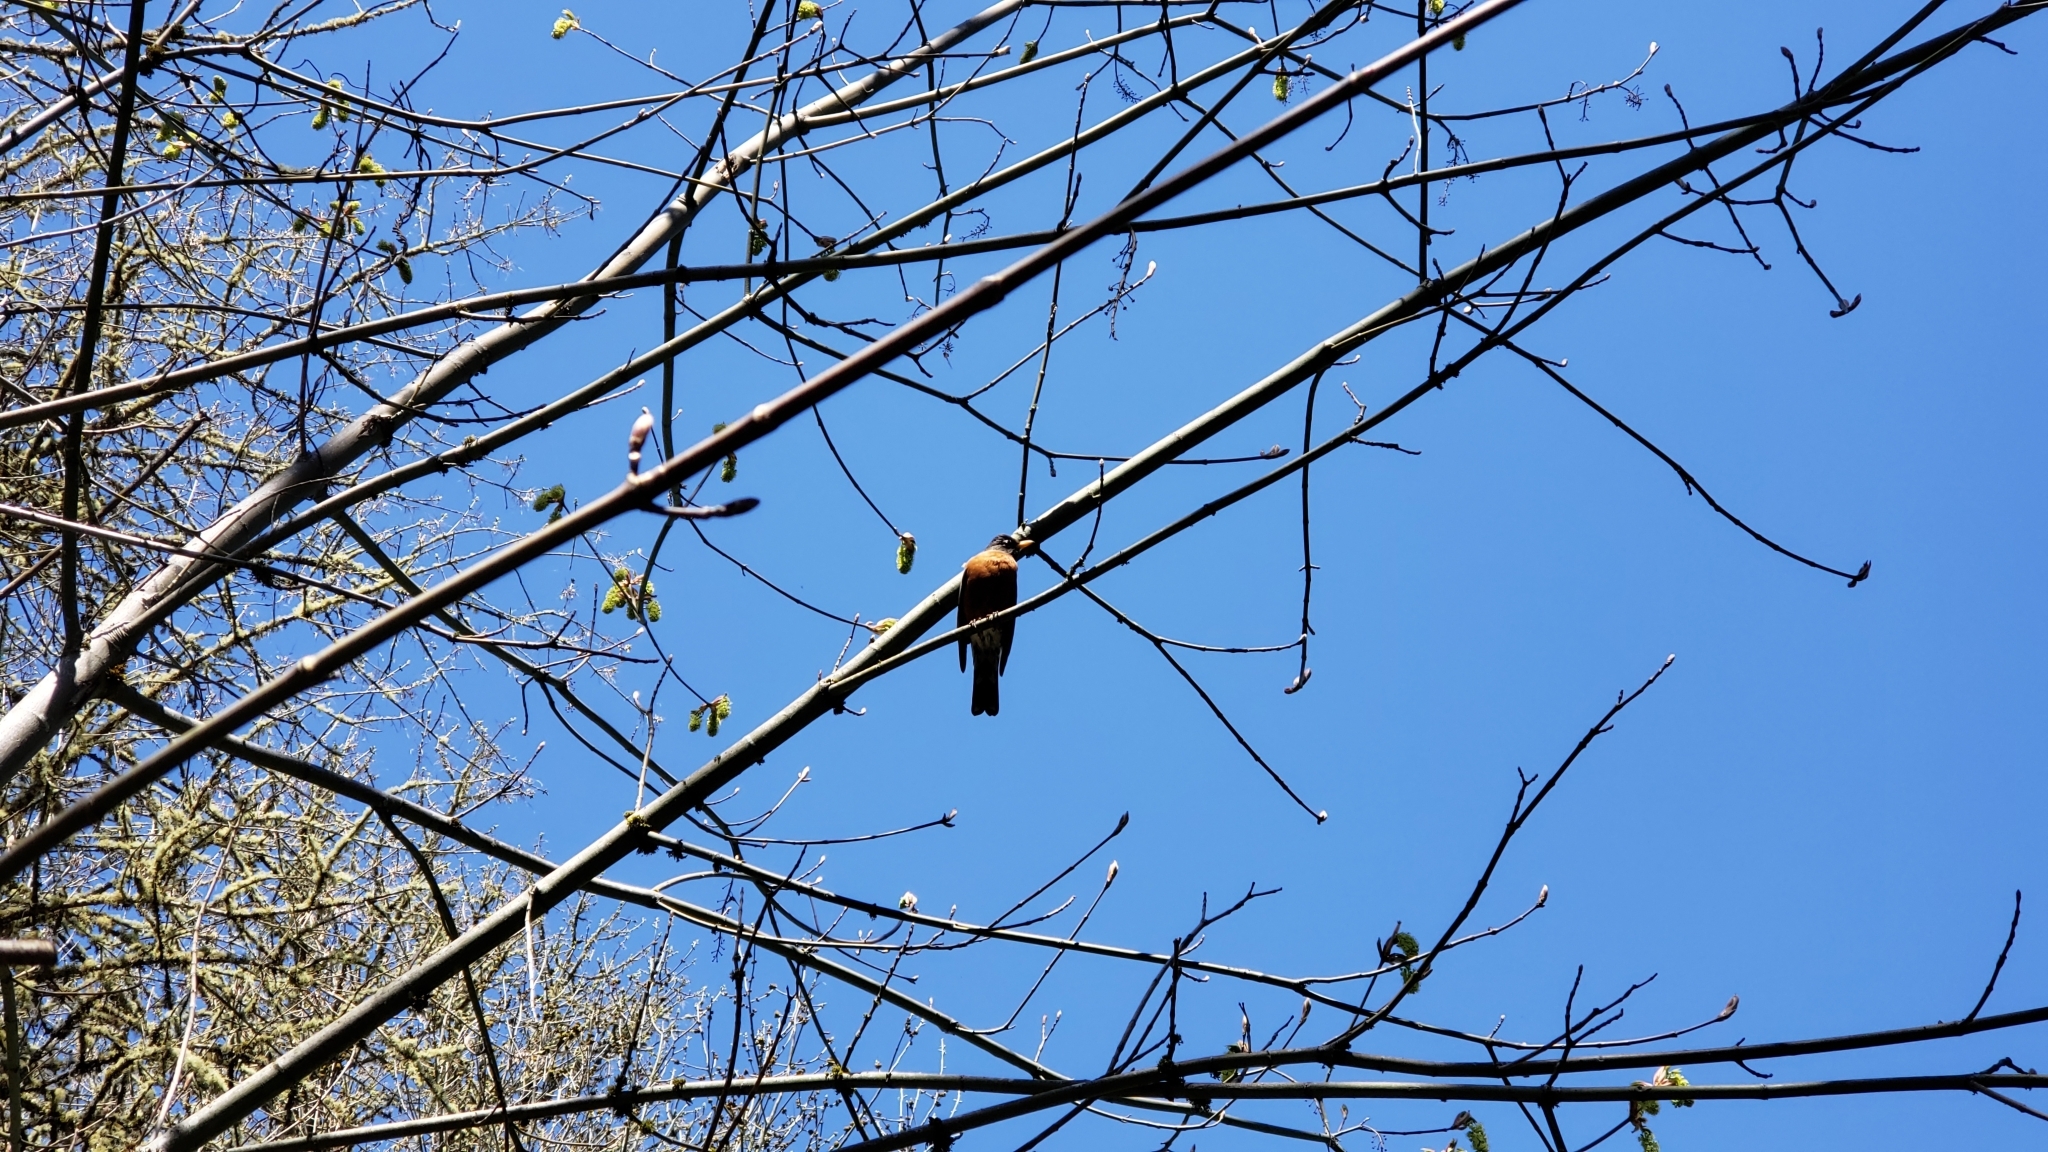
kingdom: Animalia
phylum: Chordata
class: Aves
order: Passeriformes
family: Turdidae
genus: Turdus
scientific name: Turdus migratorius
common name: American robin
